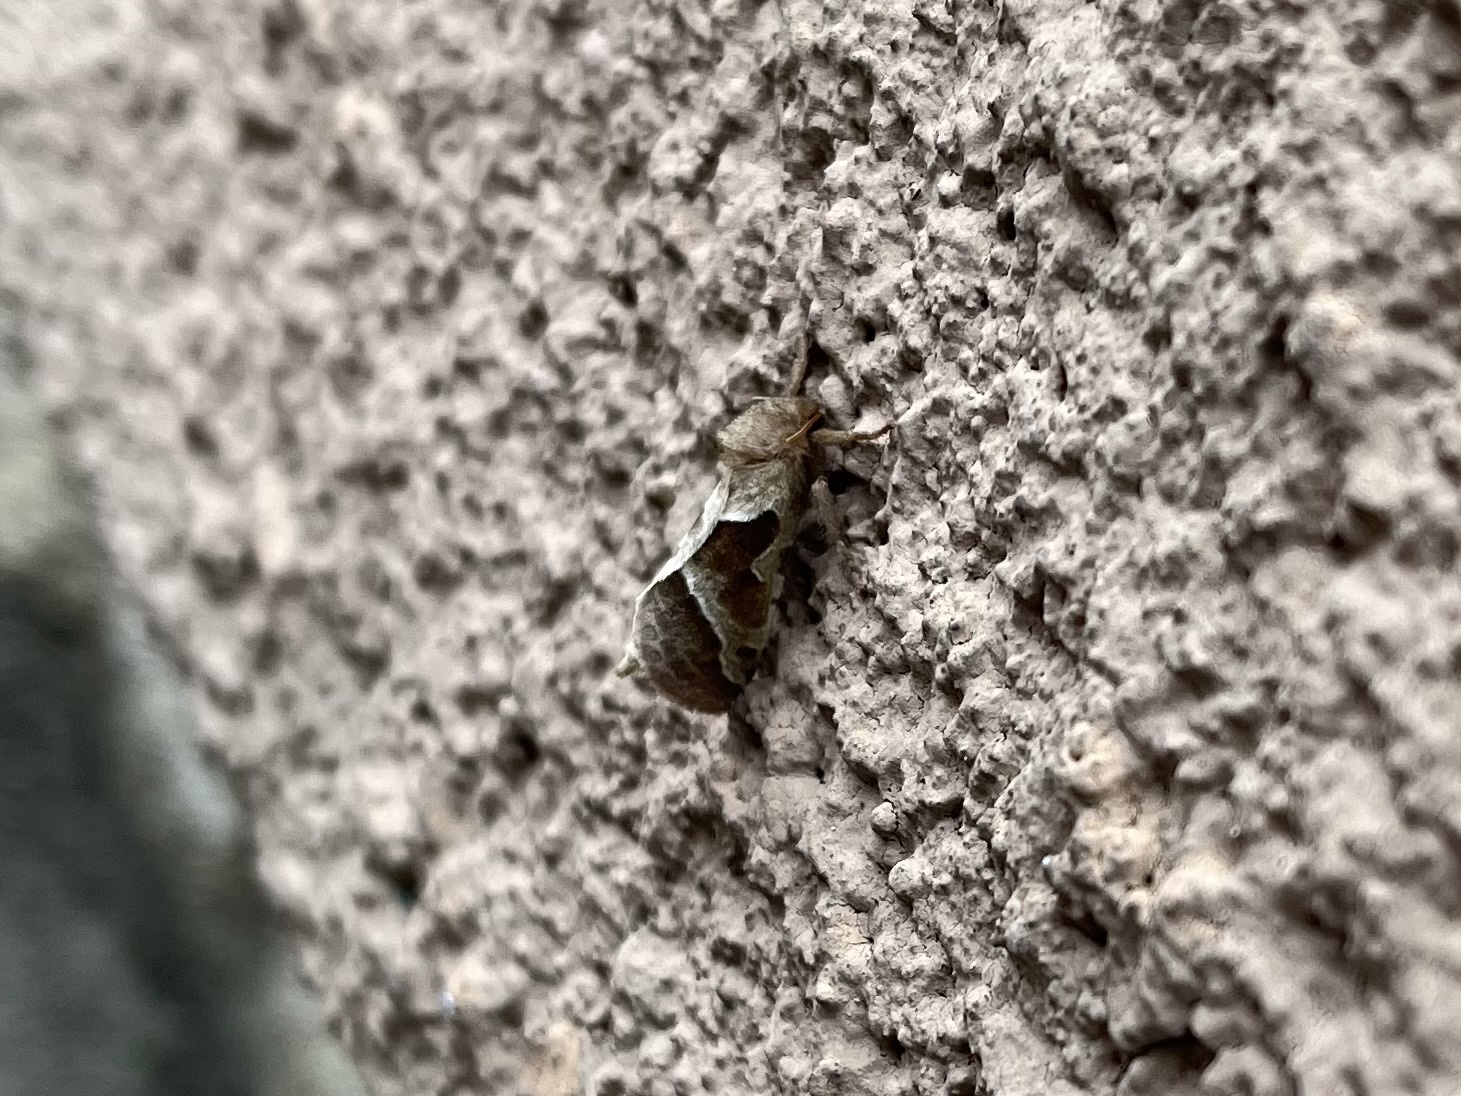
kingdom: Animalia
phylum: Arthropoda
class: Insecta
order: Lepidoptera
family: Hepialidae
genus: Triodia
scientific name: Triodia sylvina
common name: Orange swift
